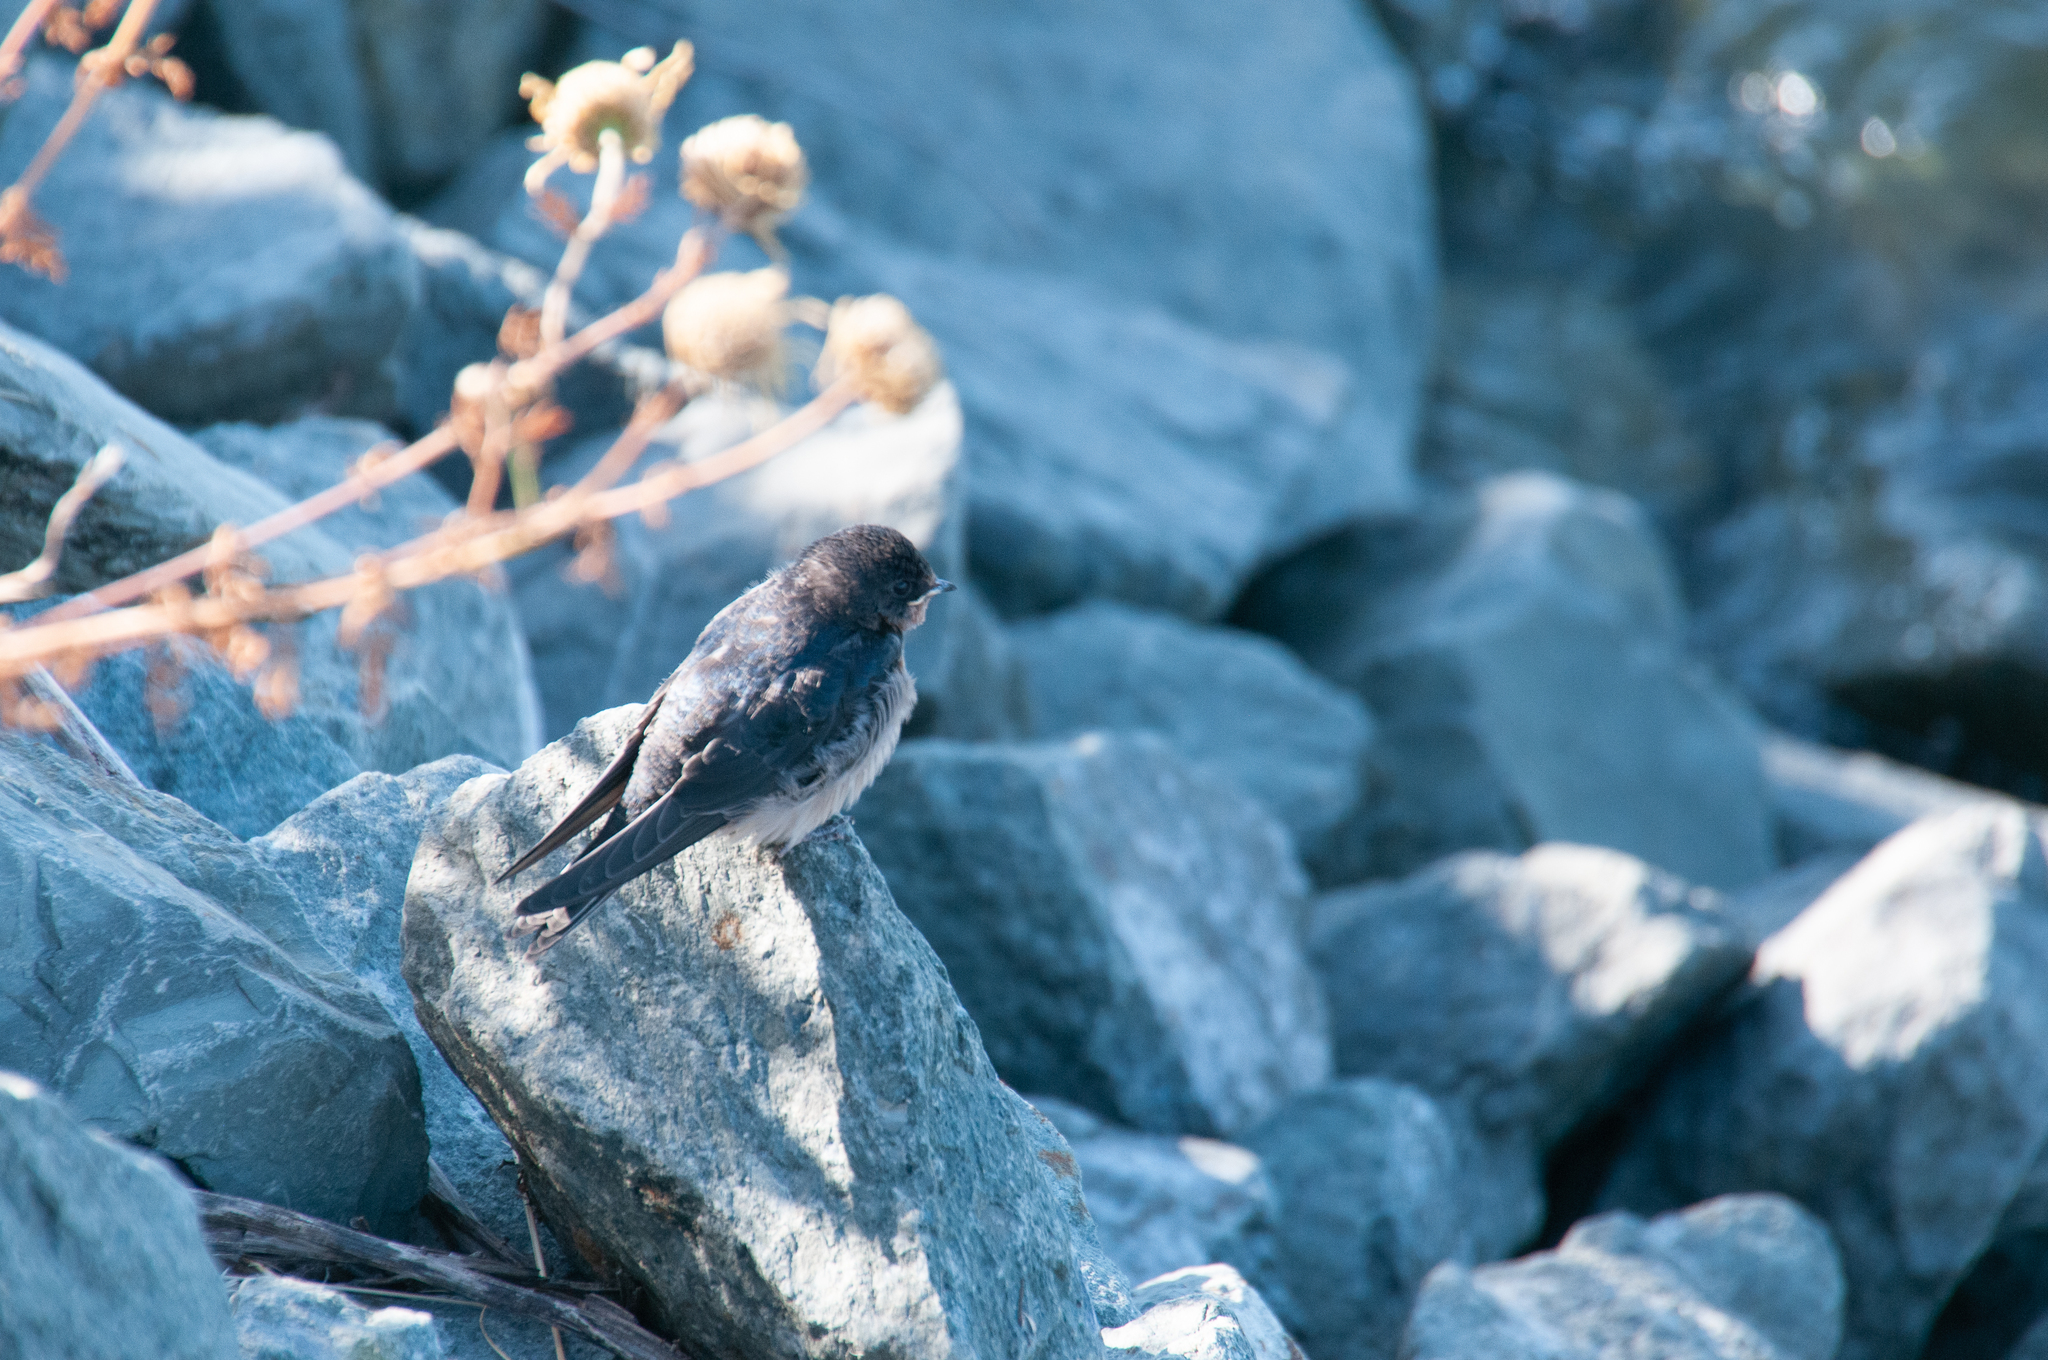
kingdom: Animalia
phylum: Chordata
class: Aves
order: Passeriformes
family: Hirundinidae
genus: Hirundo
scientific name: Hirundo rustica
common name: Barn swallow
